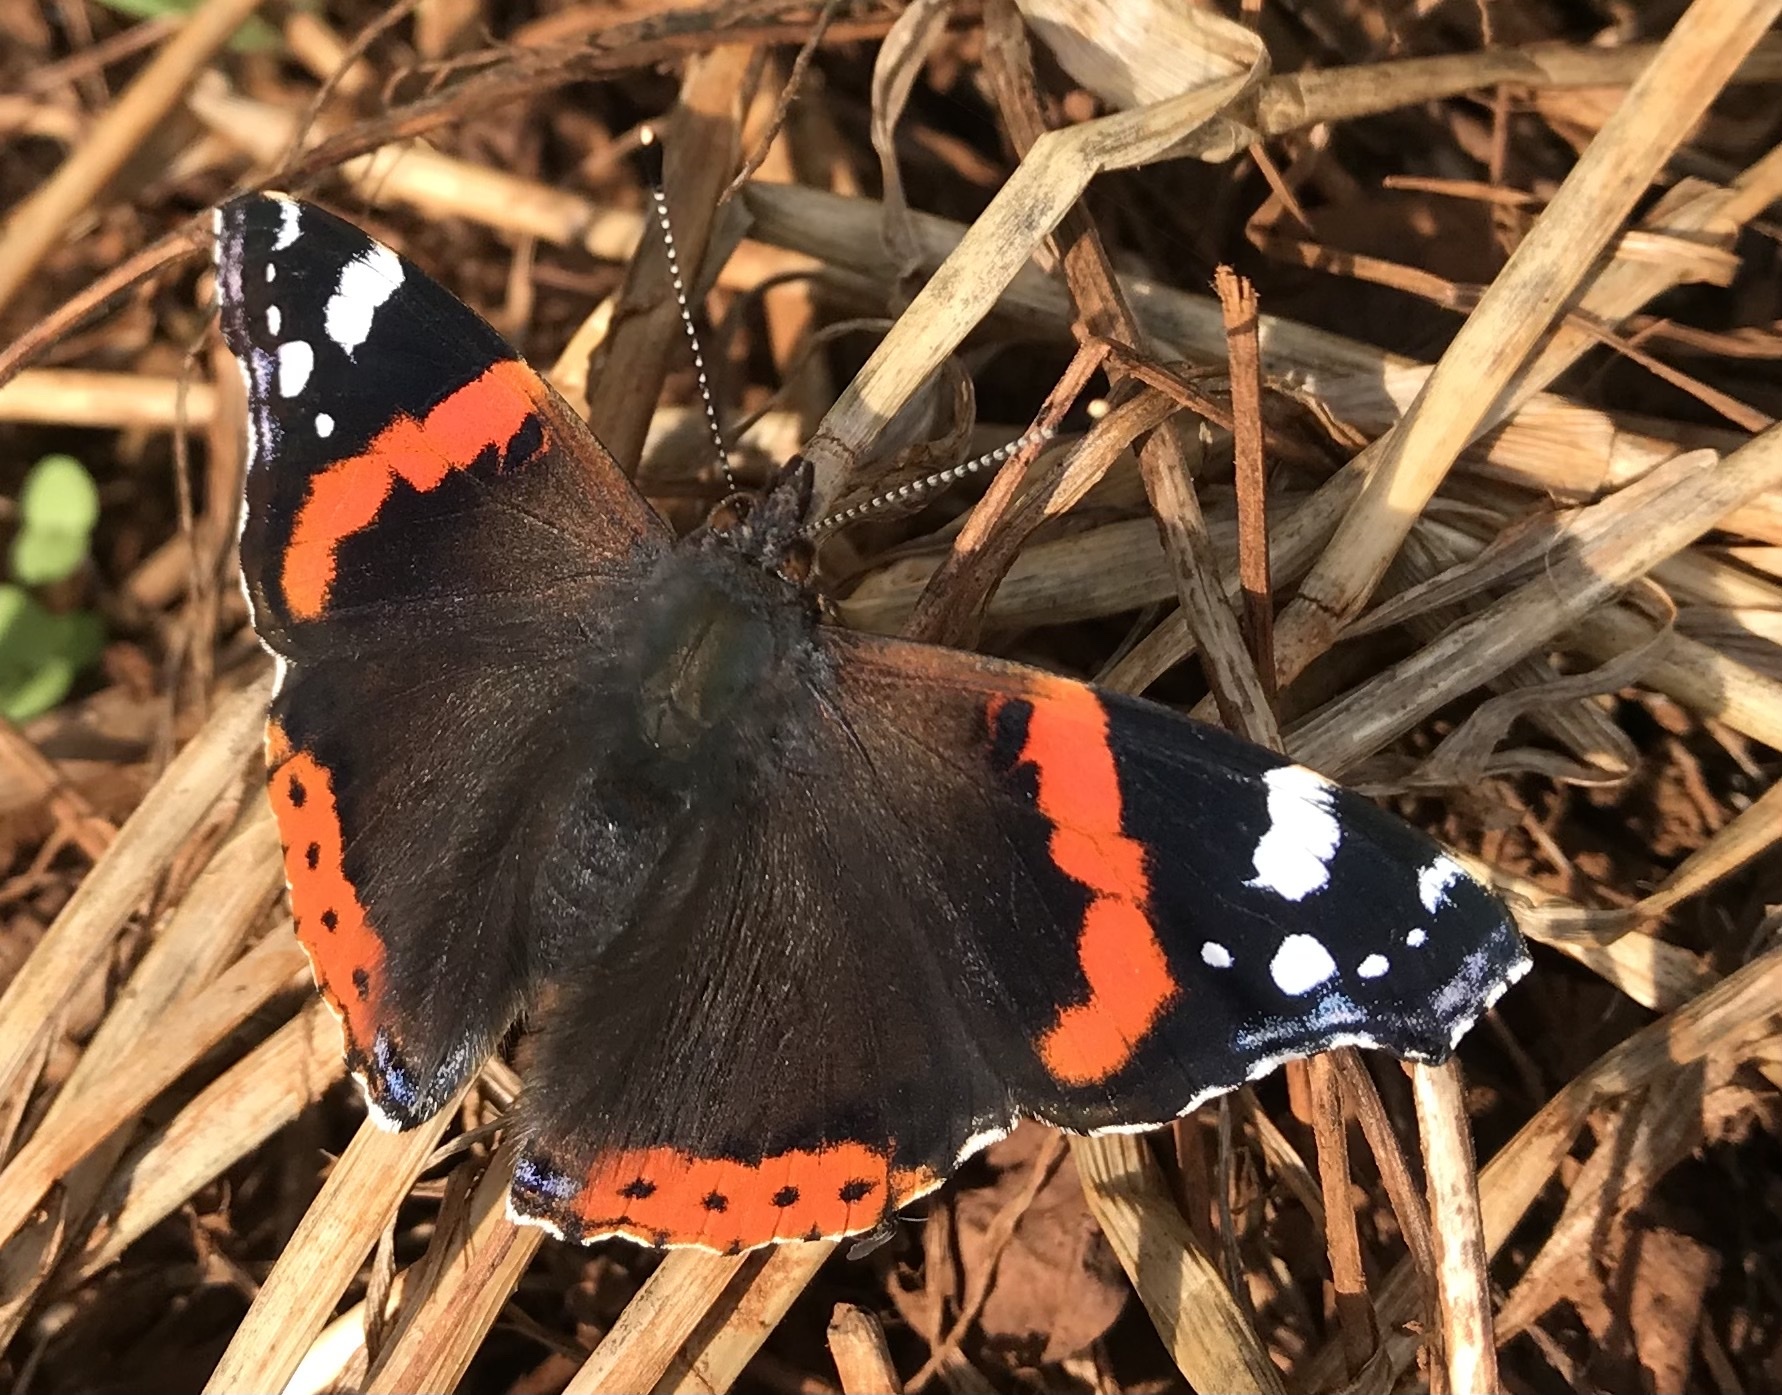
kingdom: Animalia
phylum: Arthropoda
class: Insecta
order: Lepidoptera
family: Nymphalidae
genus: Vanessa
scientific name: Vanessa atalanta
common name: Red admiral
